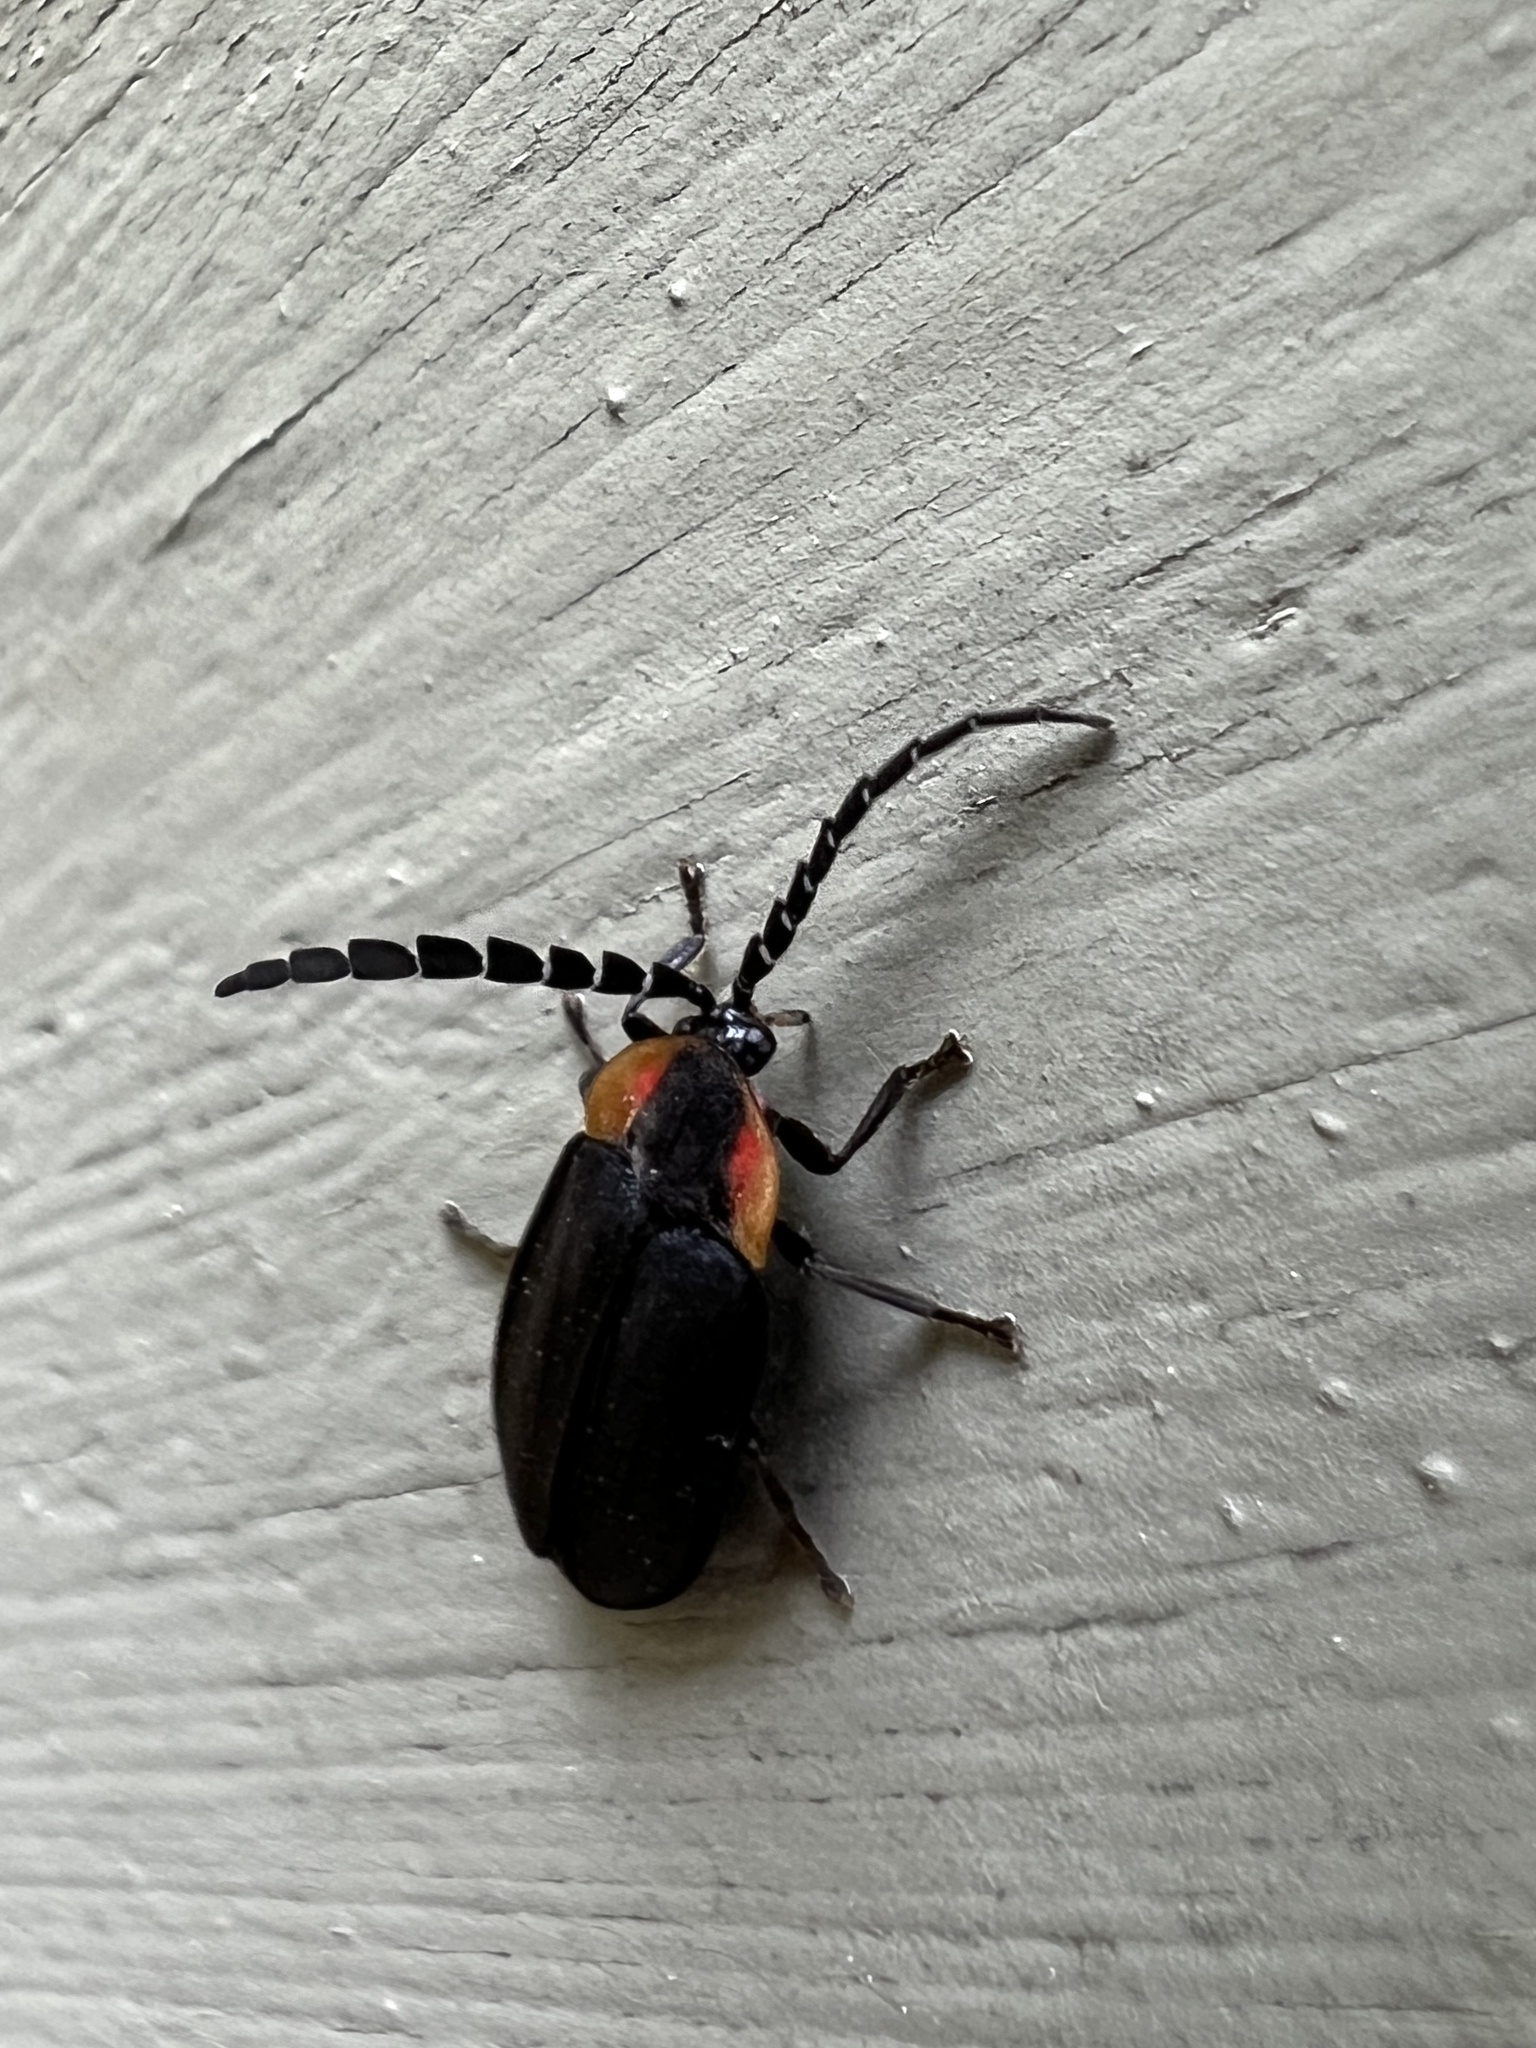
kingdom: Animalia
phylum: Arthropoda
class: Insecta
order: Coleoptera
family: Lampyridae
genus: Lucidota
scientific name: Lucidota atra
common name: Black firefly
